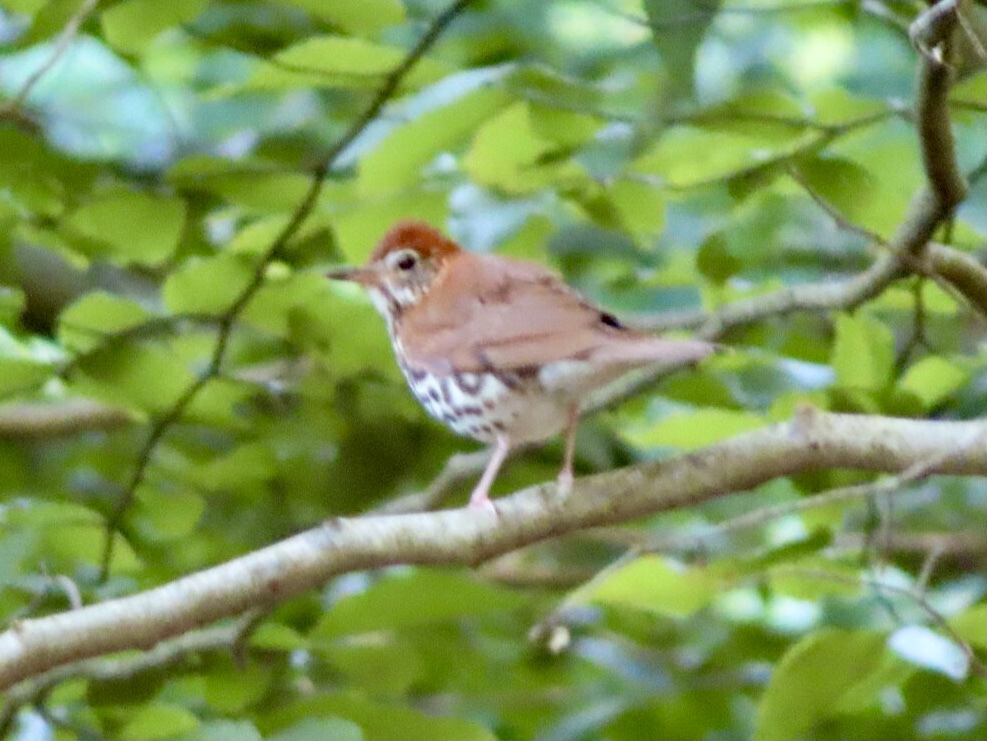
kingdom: Animalia
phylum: Chordata
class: Aves
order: Passeriformes
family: Turdidae
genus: Hylocichla
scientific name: Hylocichla mustelina
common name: Wood thrush
